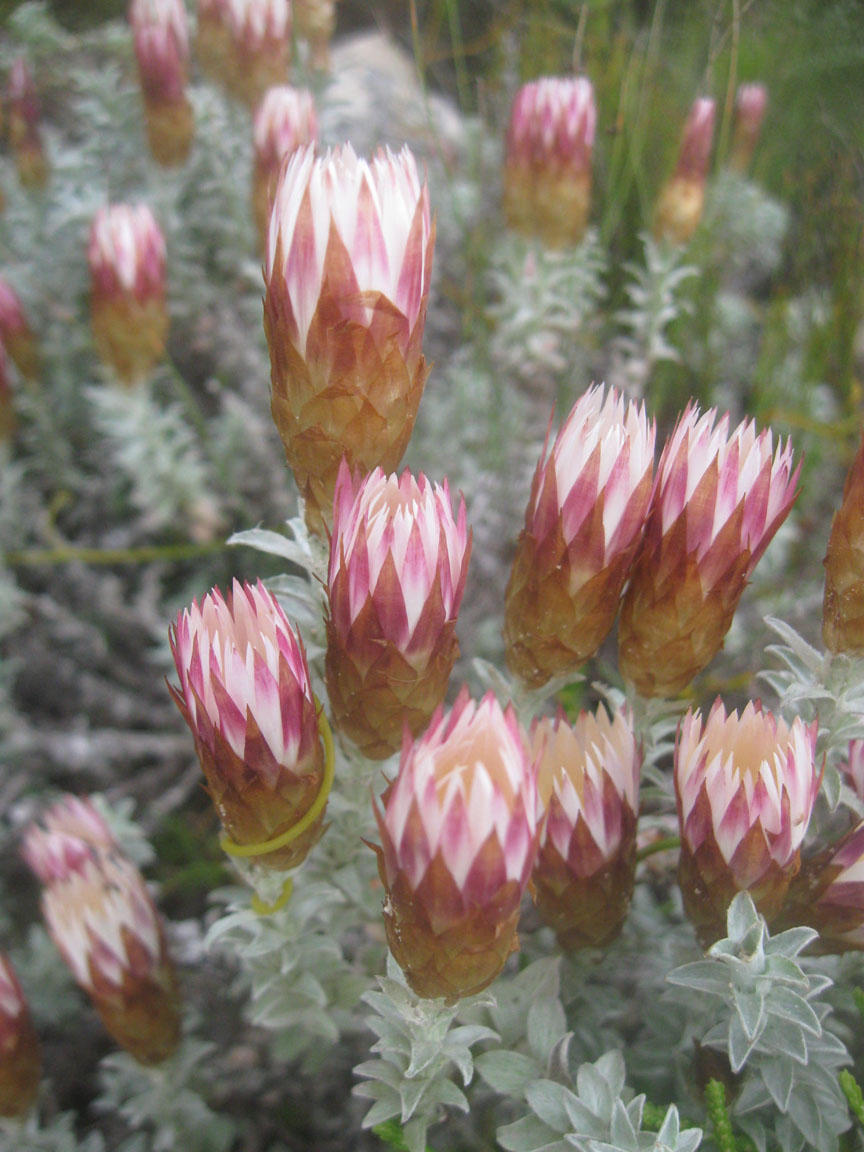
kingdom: Plantae
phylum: Tracheophyta
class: Magnoliopsida
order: Asterales
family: Asteraceae
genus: Helichrysum
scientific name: Helichrysum retortum
